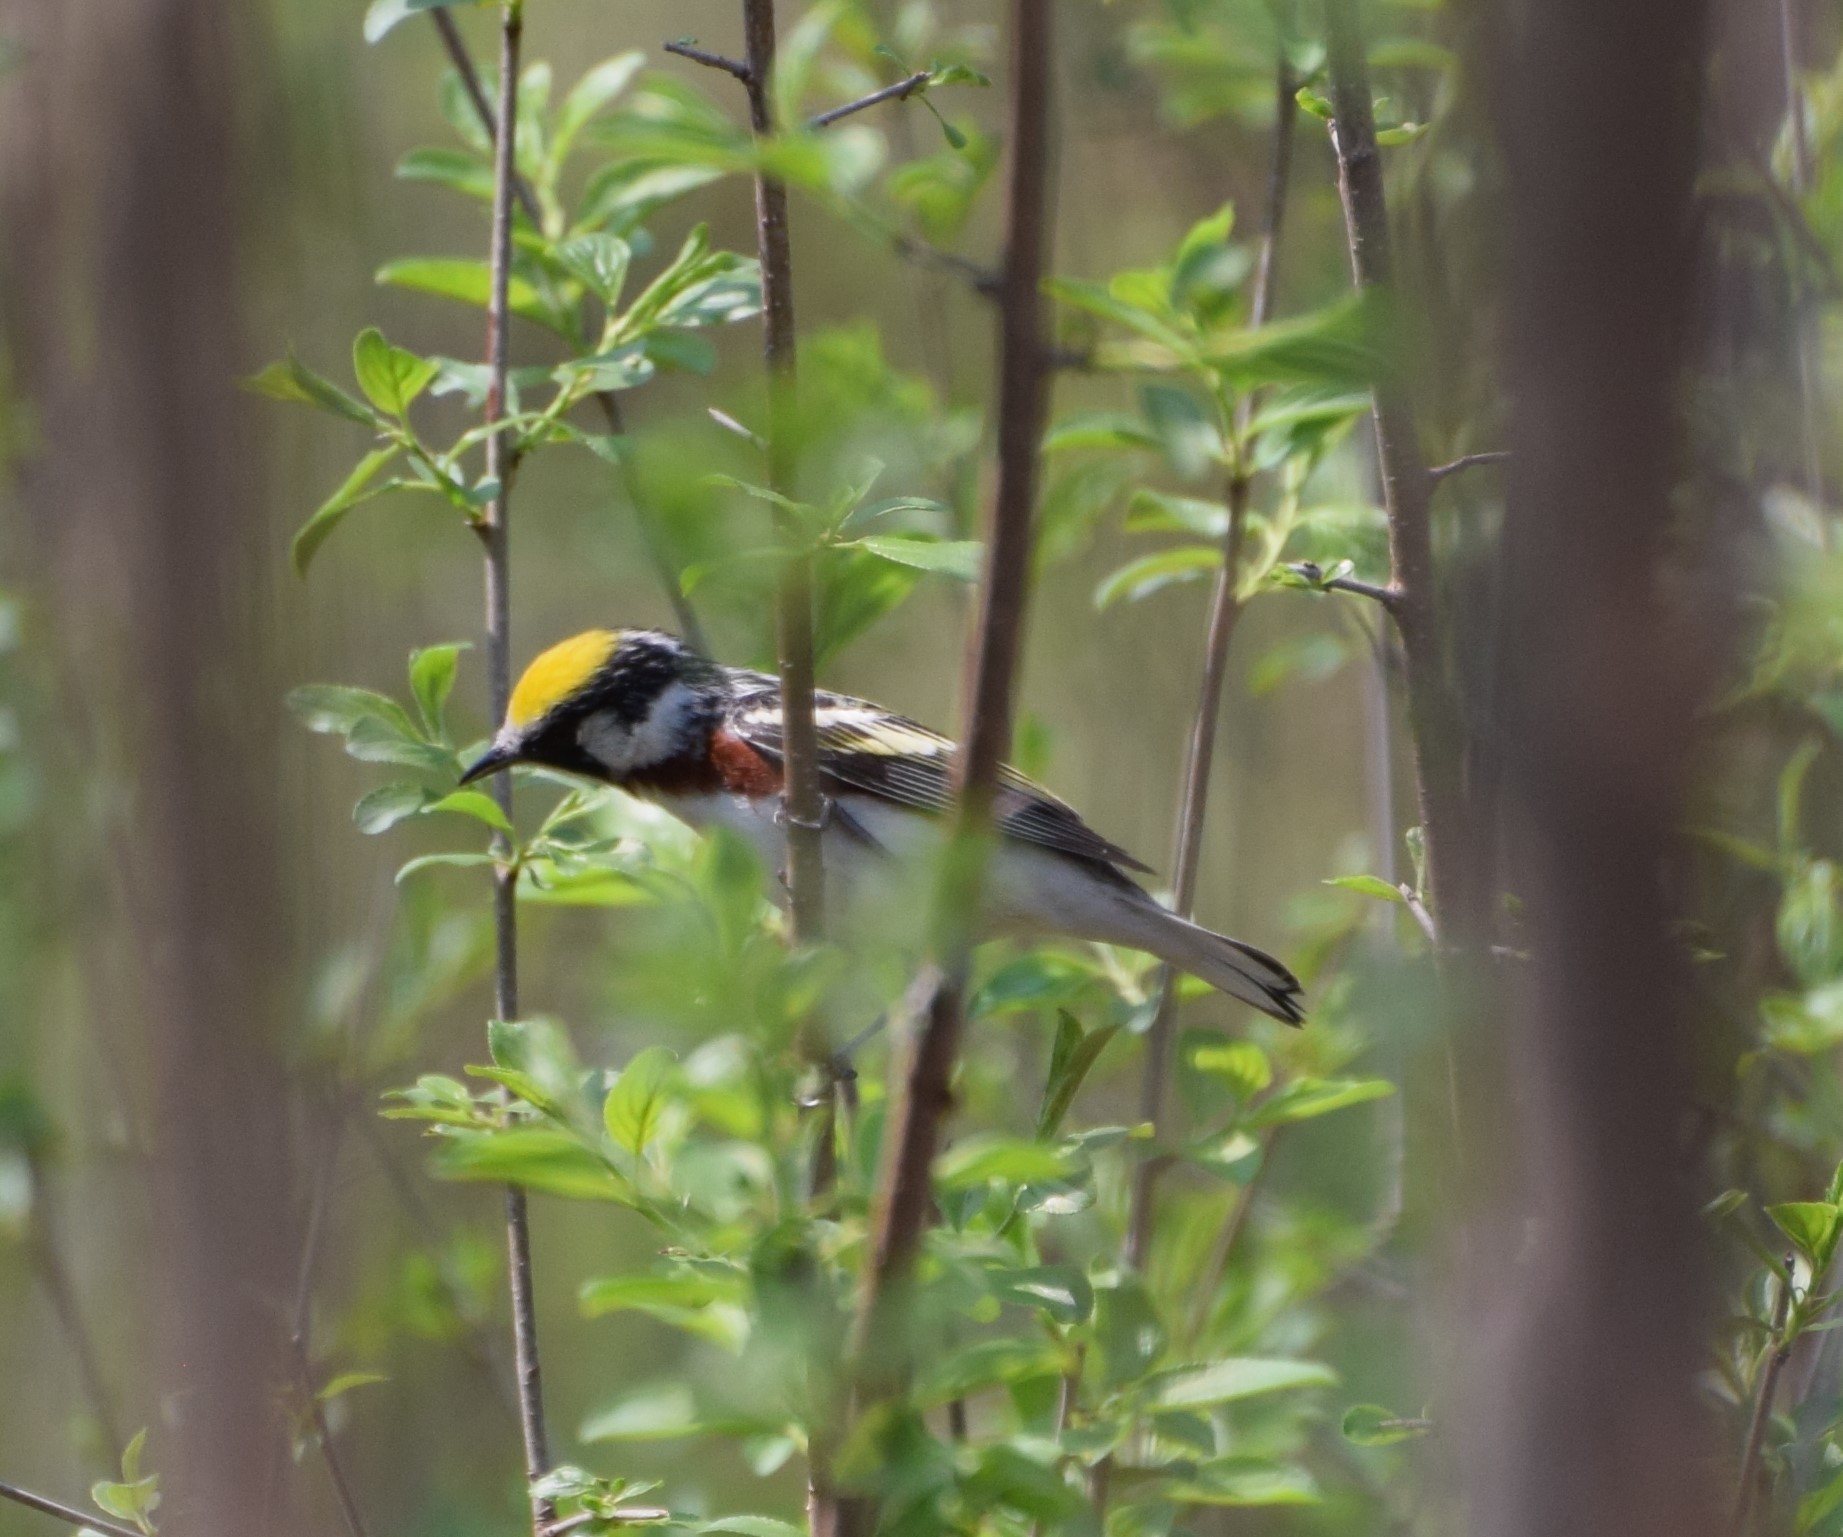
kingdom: Animalia
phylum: Chordata
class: Aves
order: Passeriformes
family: Parulidae
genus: Setophaga
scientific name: Setophaga pensylvanica
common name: Chestnut-sided warbler
